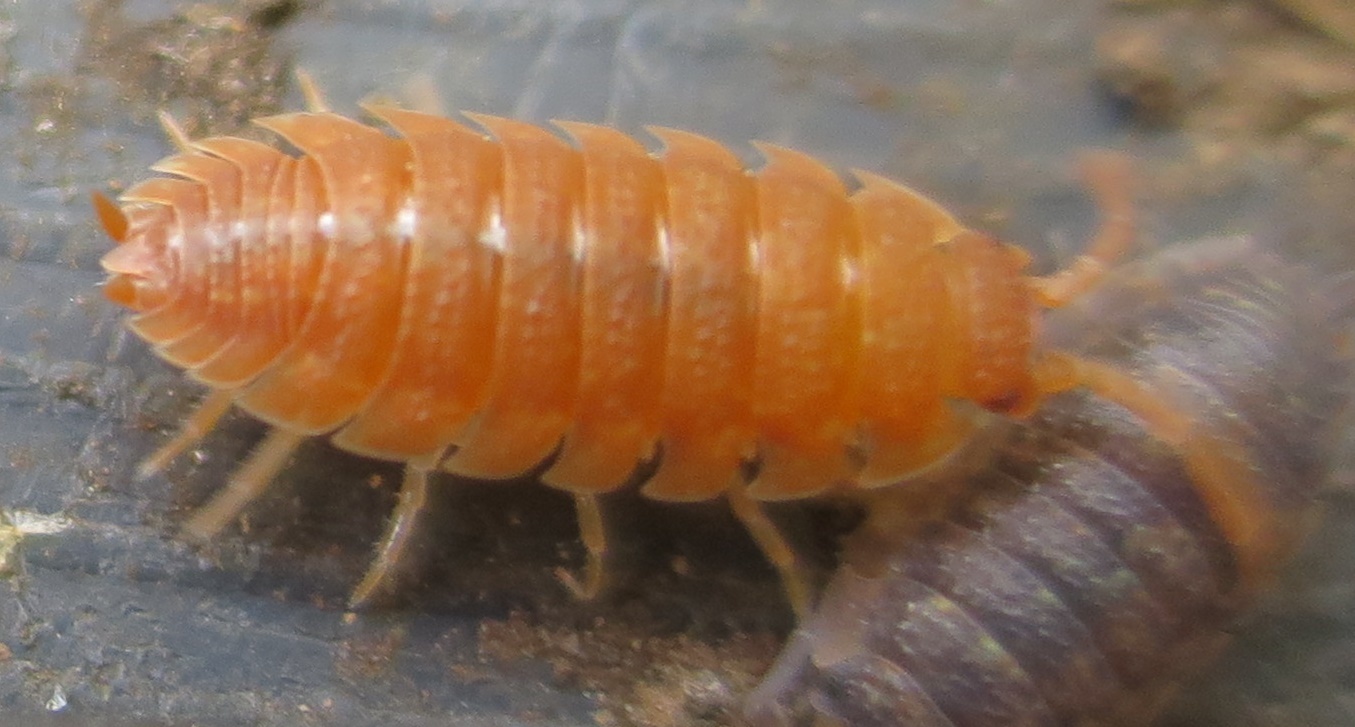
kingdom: Animalia
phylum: Arthropoda
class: Malacostraca
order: Isopoda
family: Porcellionidae
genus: Porcellio
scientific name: Porcellio scaber
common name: Common rough woodlouse
